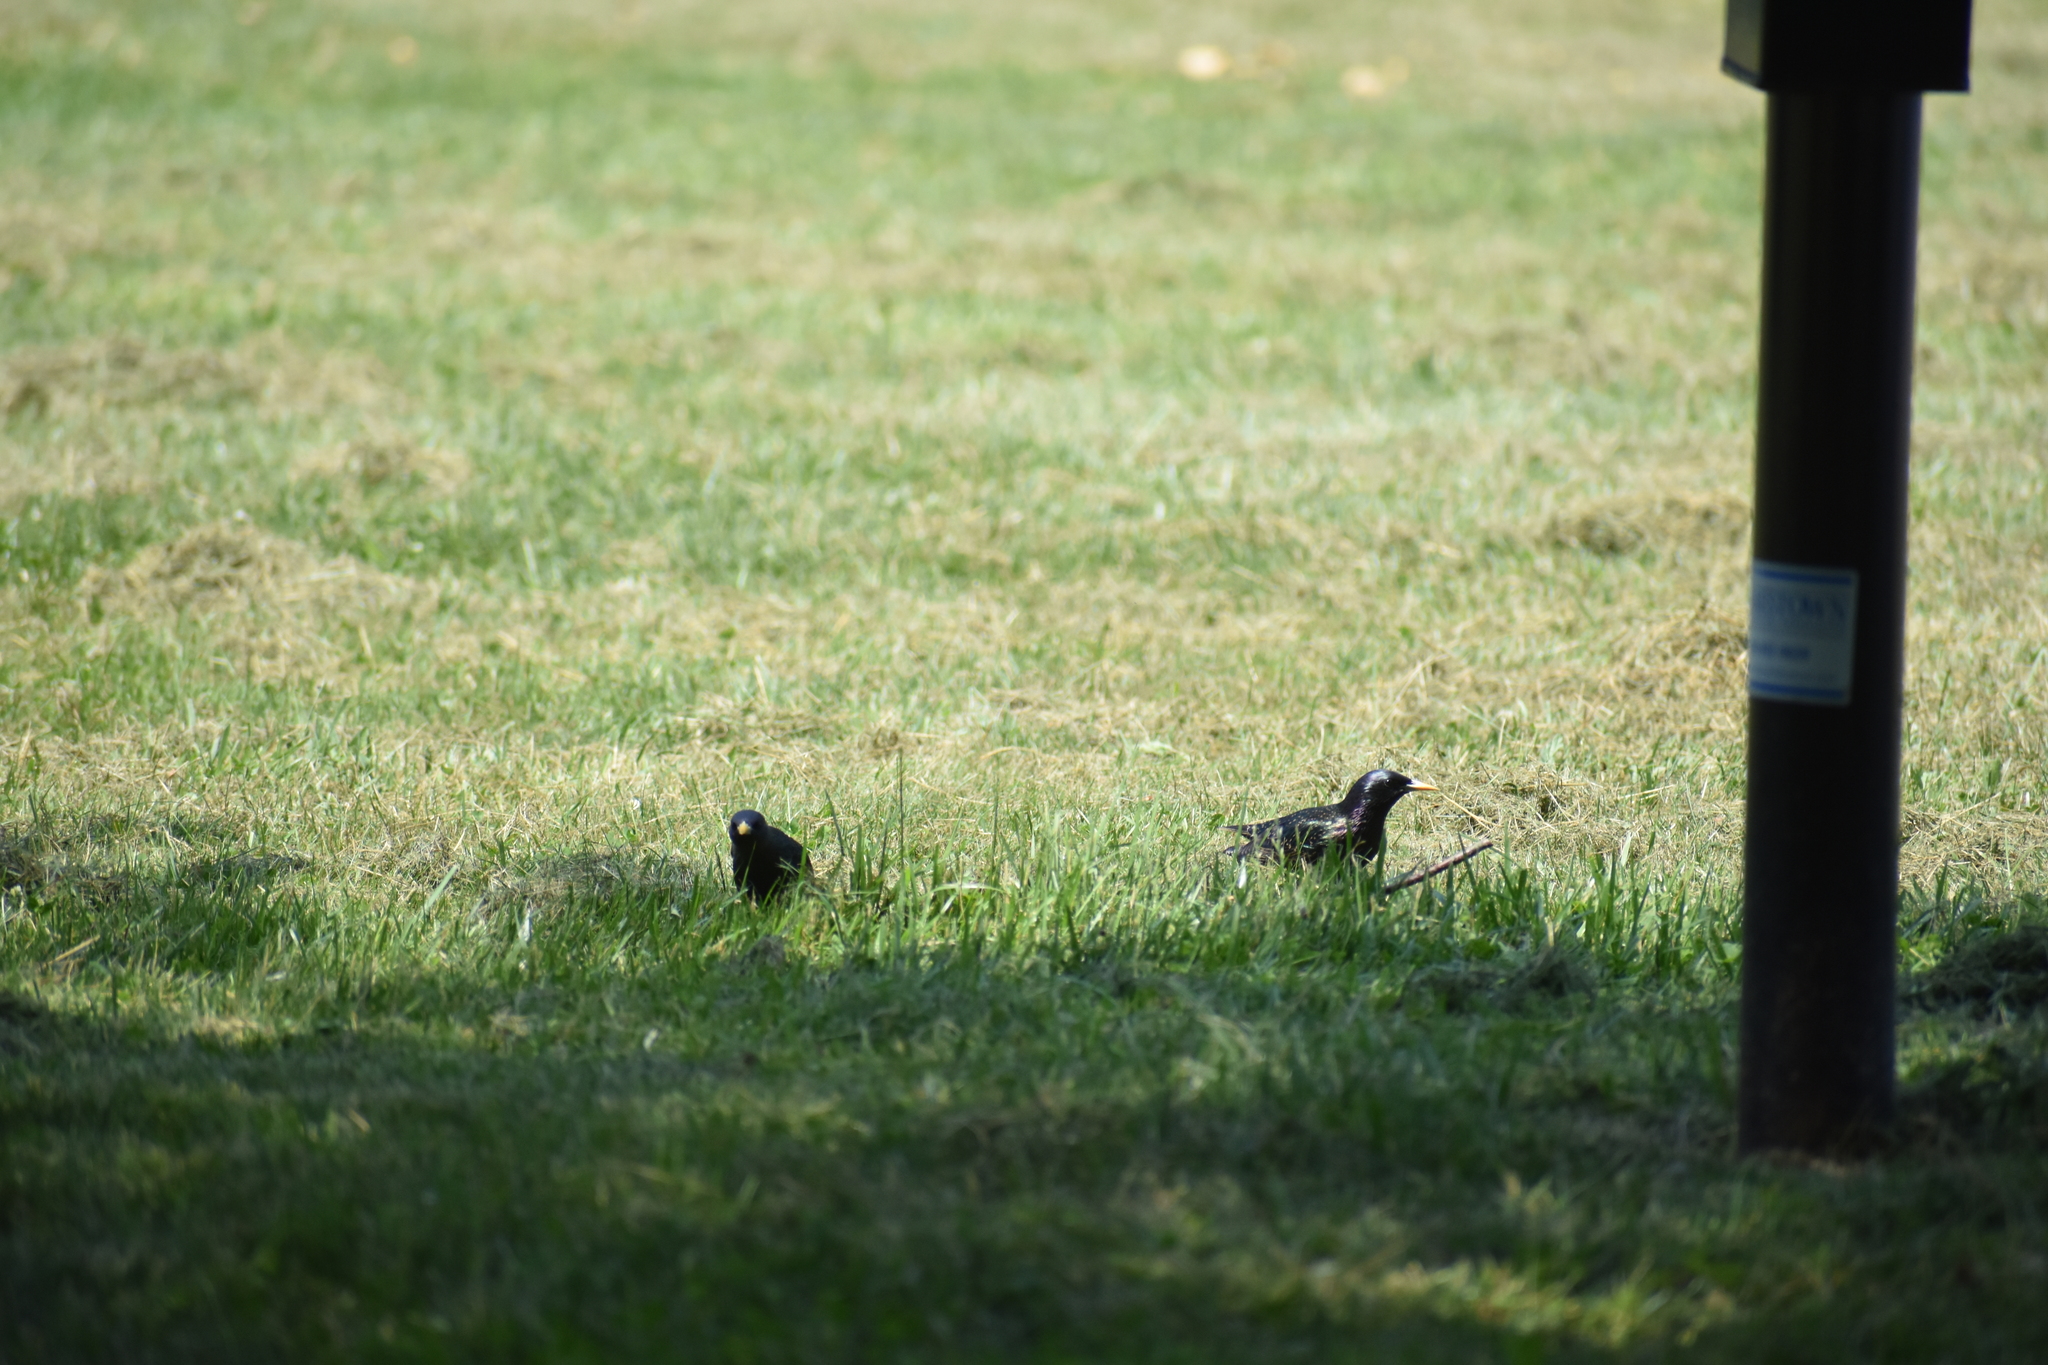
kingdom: Animalia
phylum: Chordata
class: Aves
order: Passeriformes
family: Sturnidae
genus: Sturnus
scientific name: Sturnus vulgaris
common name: Common starling
